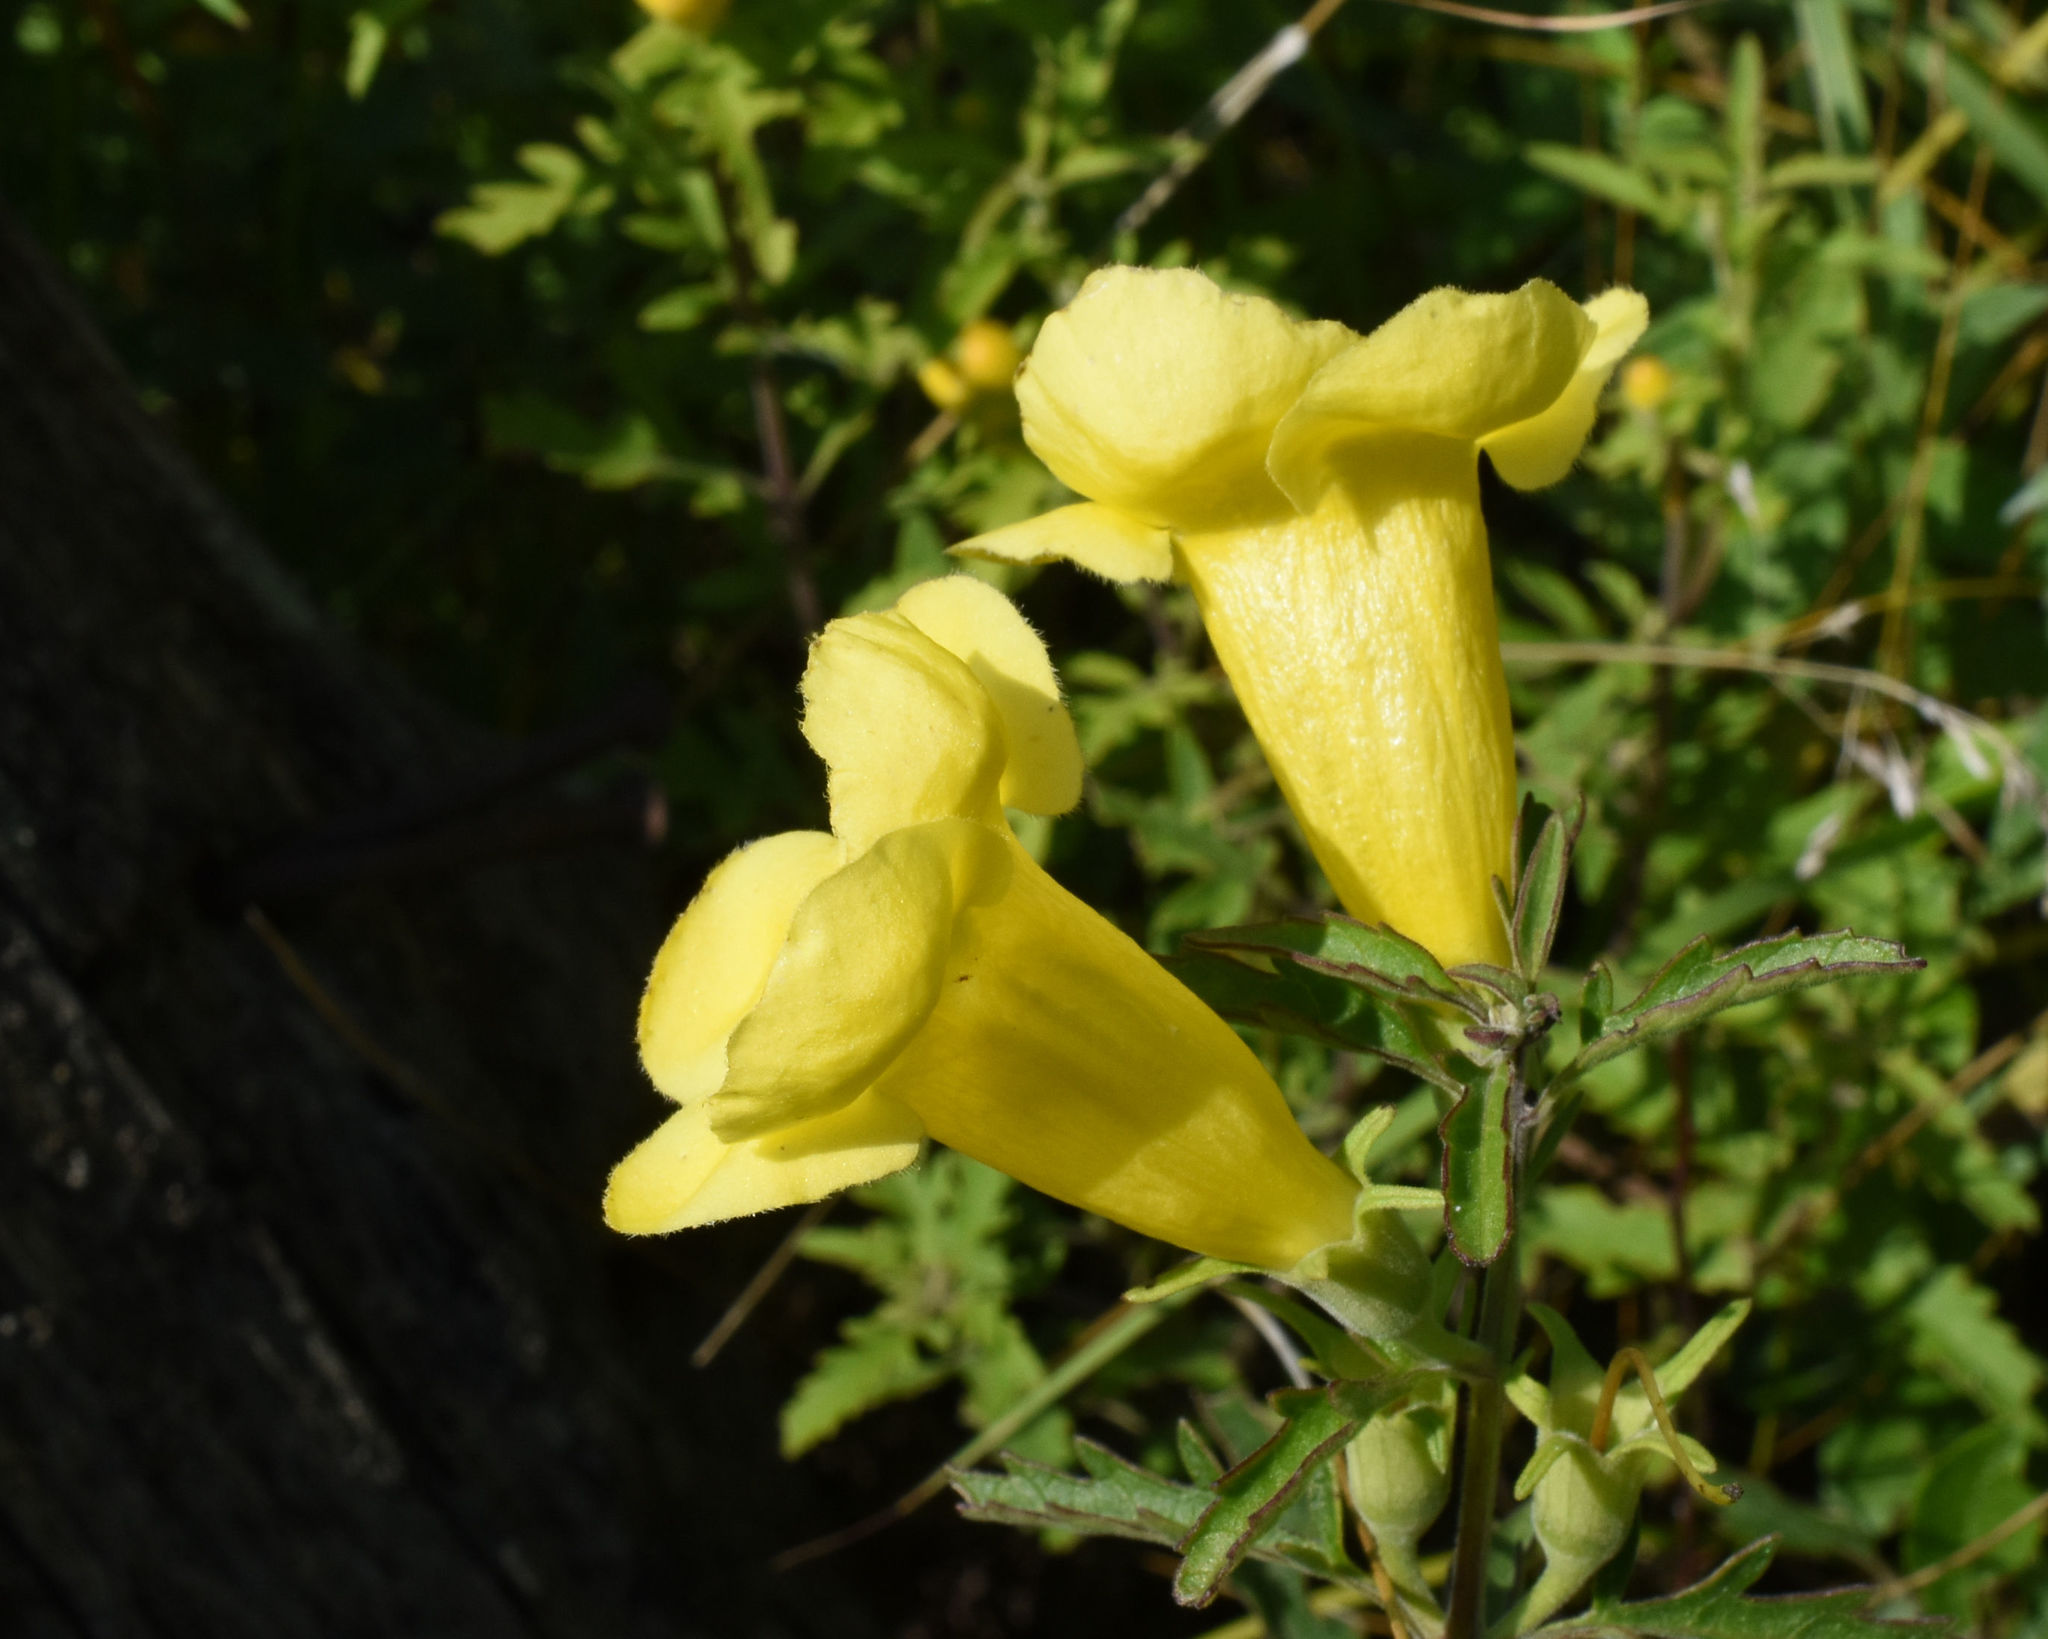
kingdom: Plantae
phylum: Tracheophyta
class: Magnoliopsida
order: Lamiales
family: Orobanchaceae
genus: Aureolaria
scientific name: Aureolaria grandiflora
